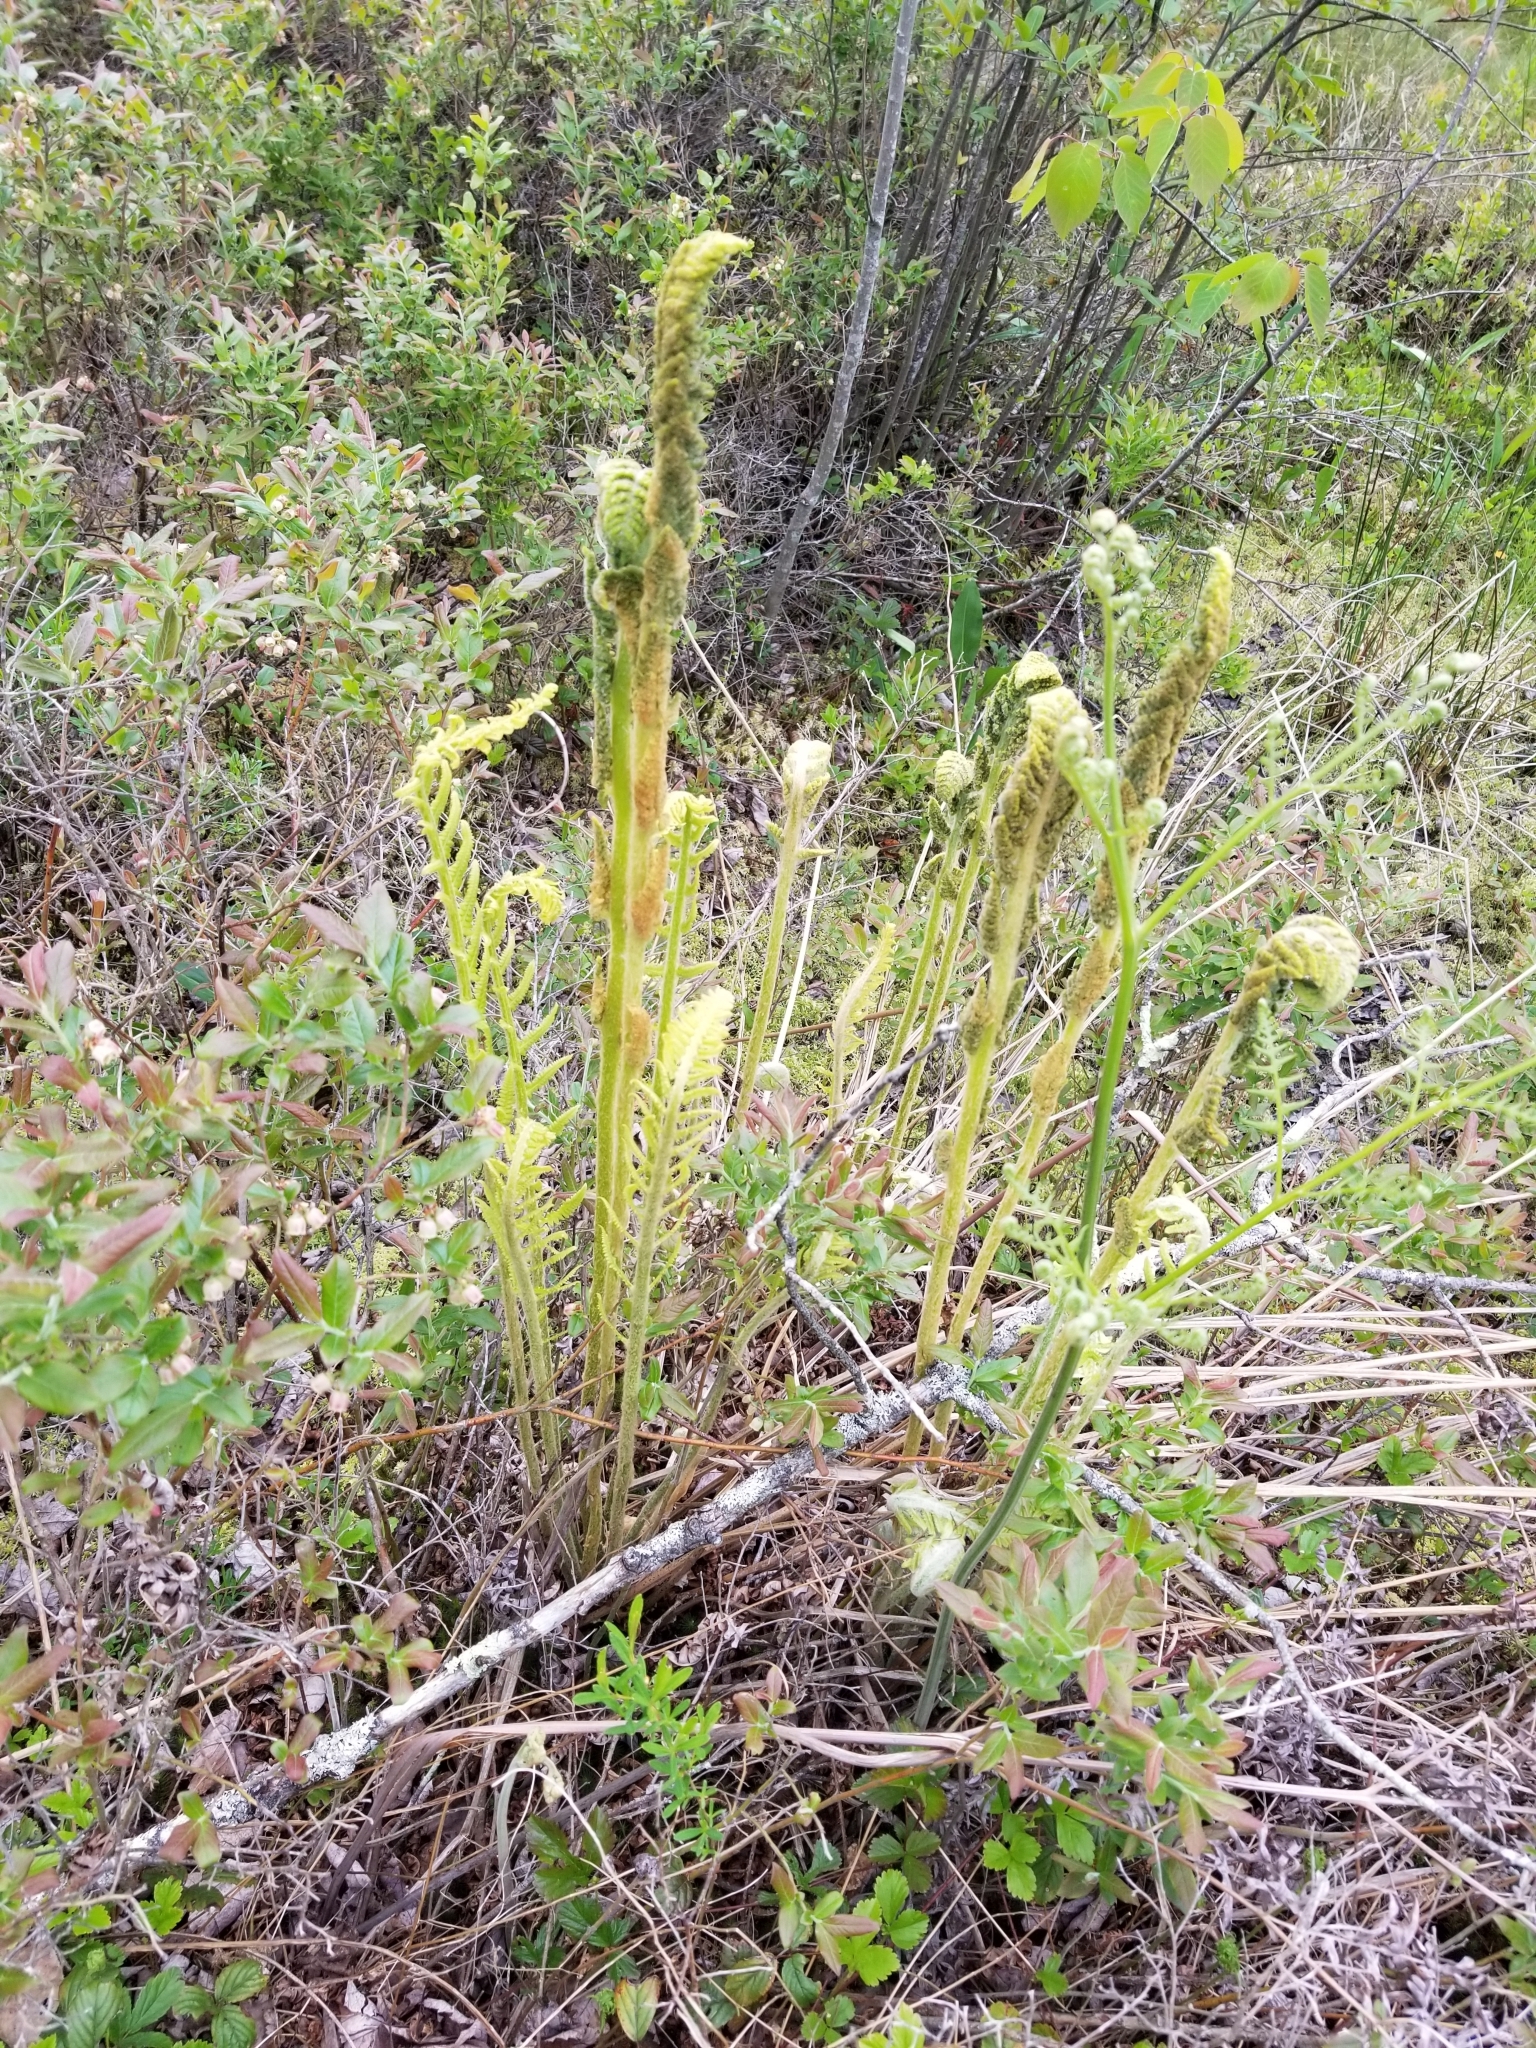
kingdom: Plantae
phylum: Tracheophyta
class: Polypodiopsida
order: Osmundales
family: Osmundaceae
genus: Osmundastrum
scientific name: Osmundastrum cinnamomeum
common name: Cinnamon fern
